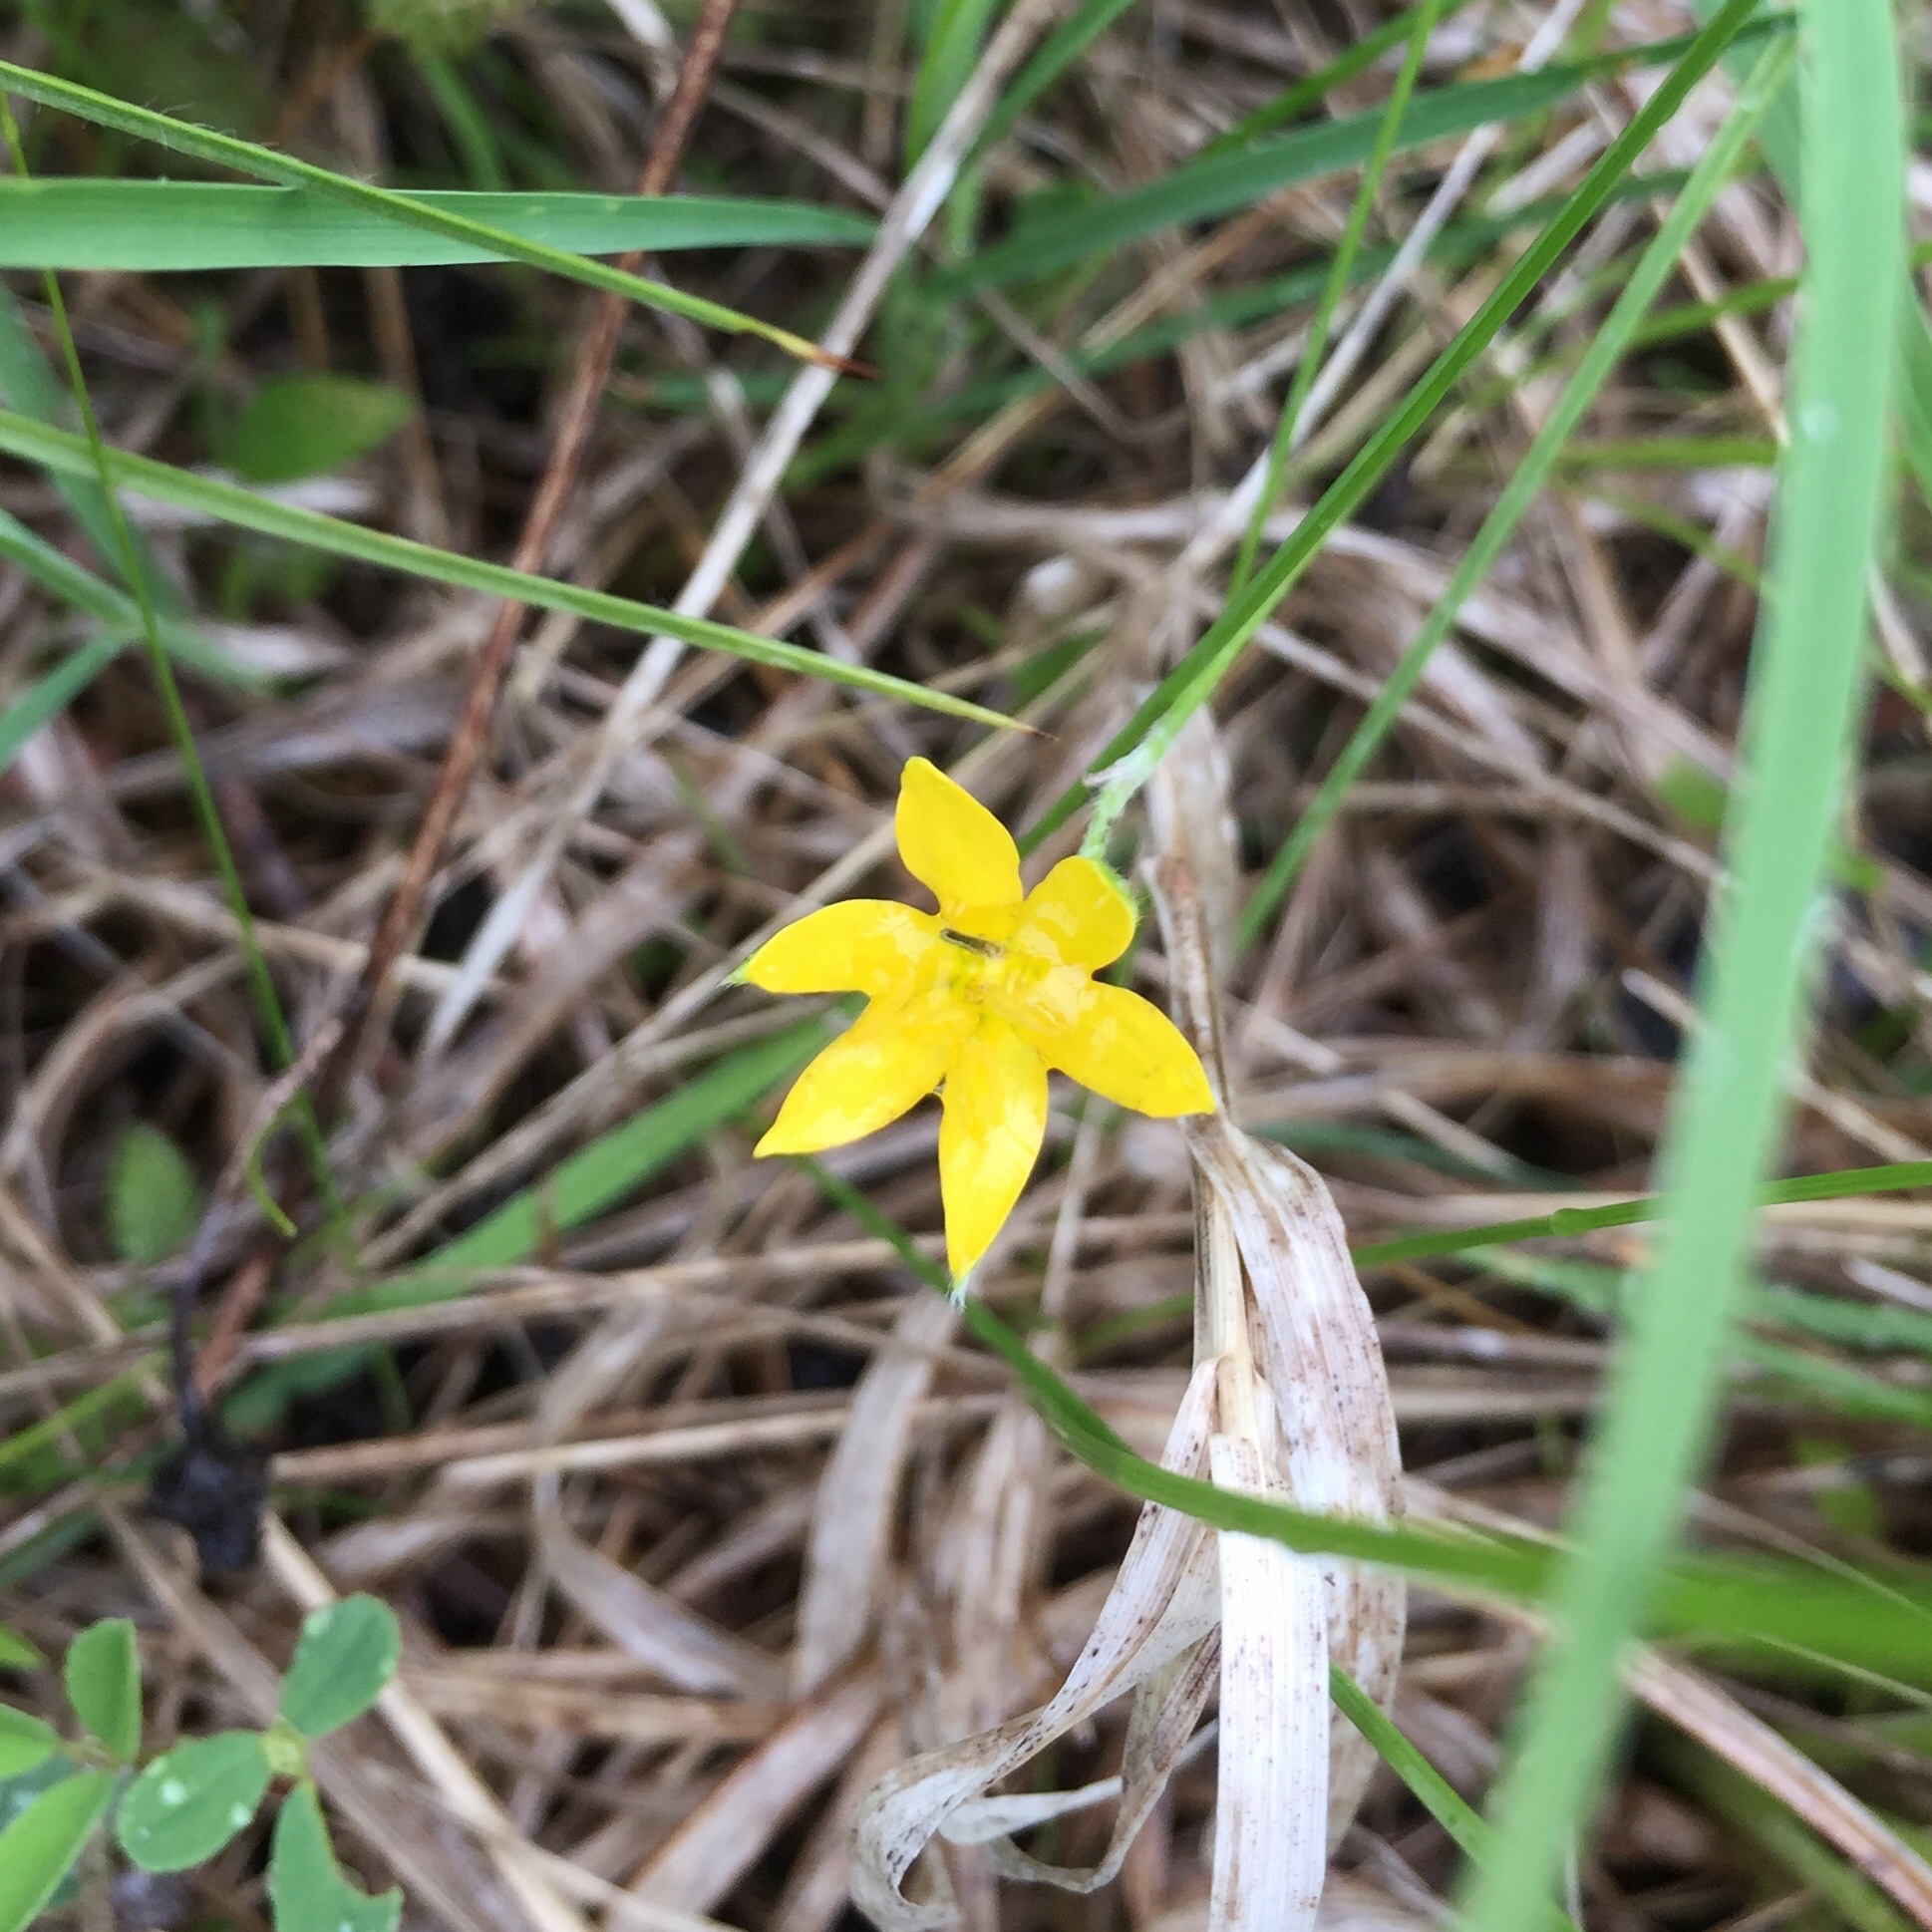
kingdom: Plantae
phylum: Tracheophyta
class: Liliopsida
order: Asparagales
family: Hypoxidaceae
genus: Hypoxis
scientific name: Hypoxis hirsuta
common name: Common goldstar
